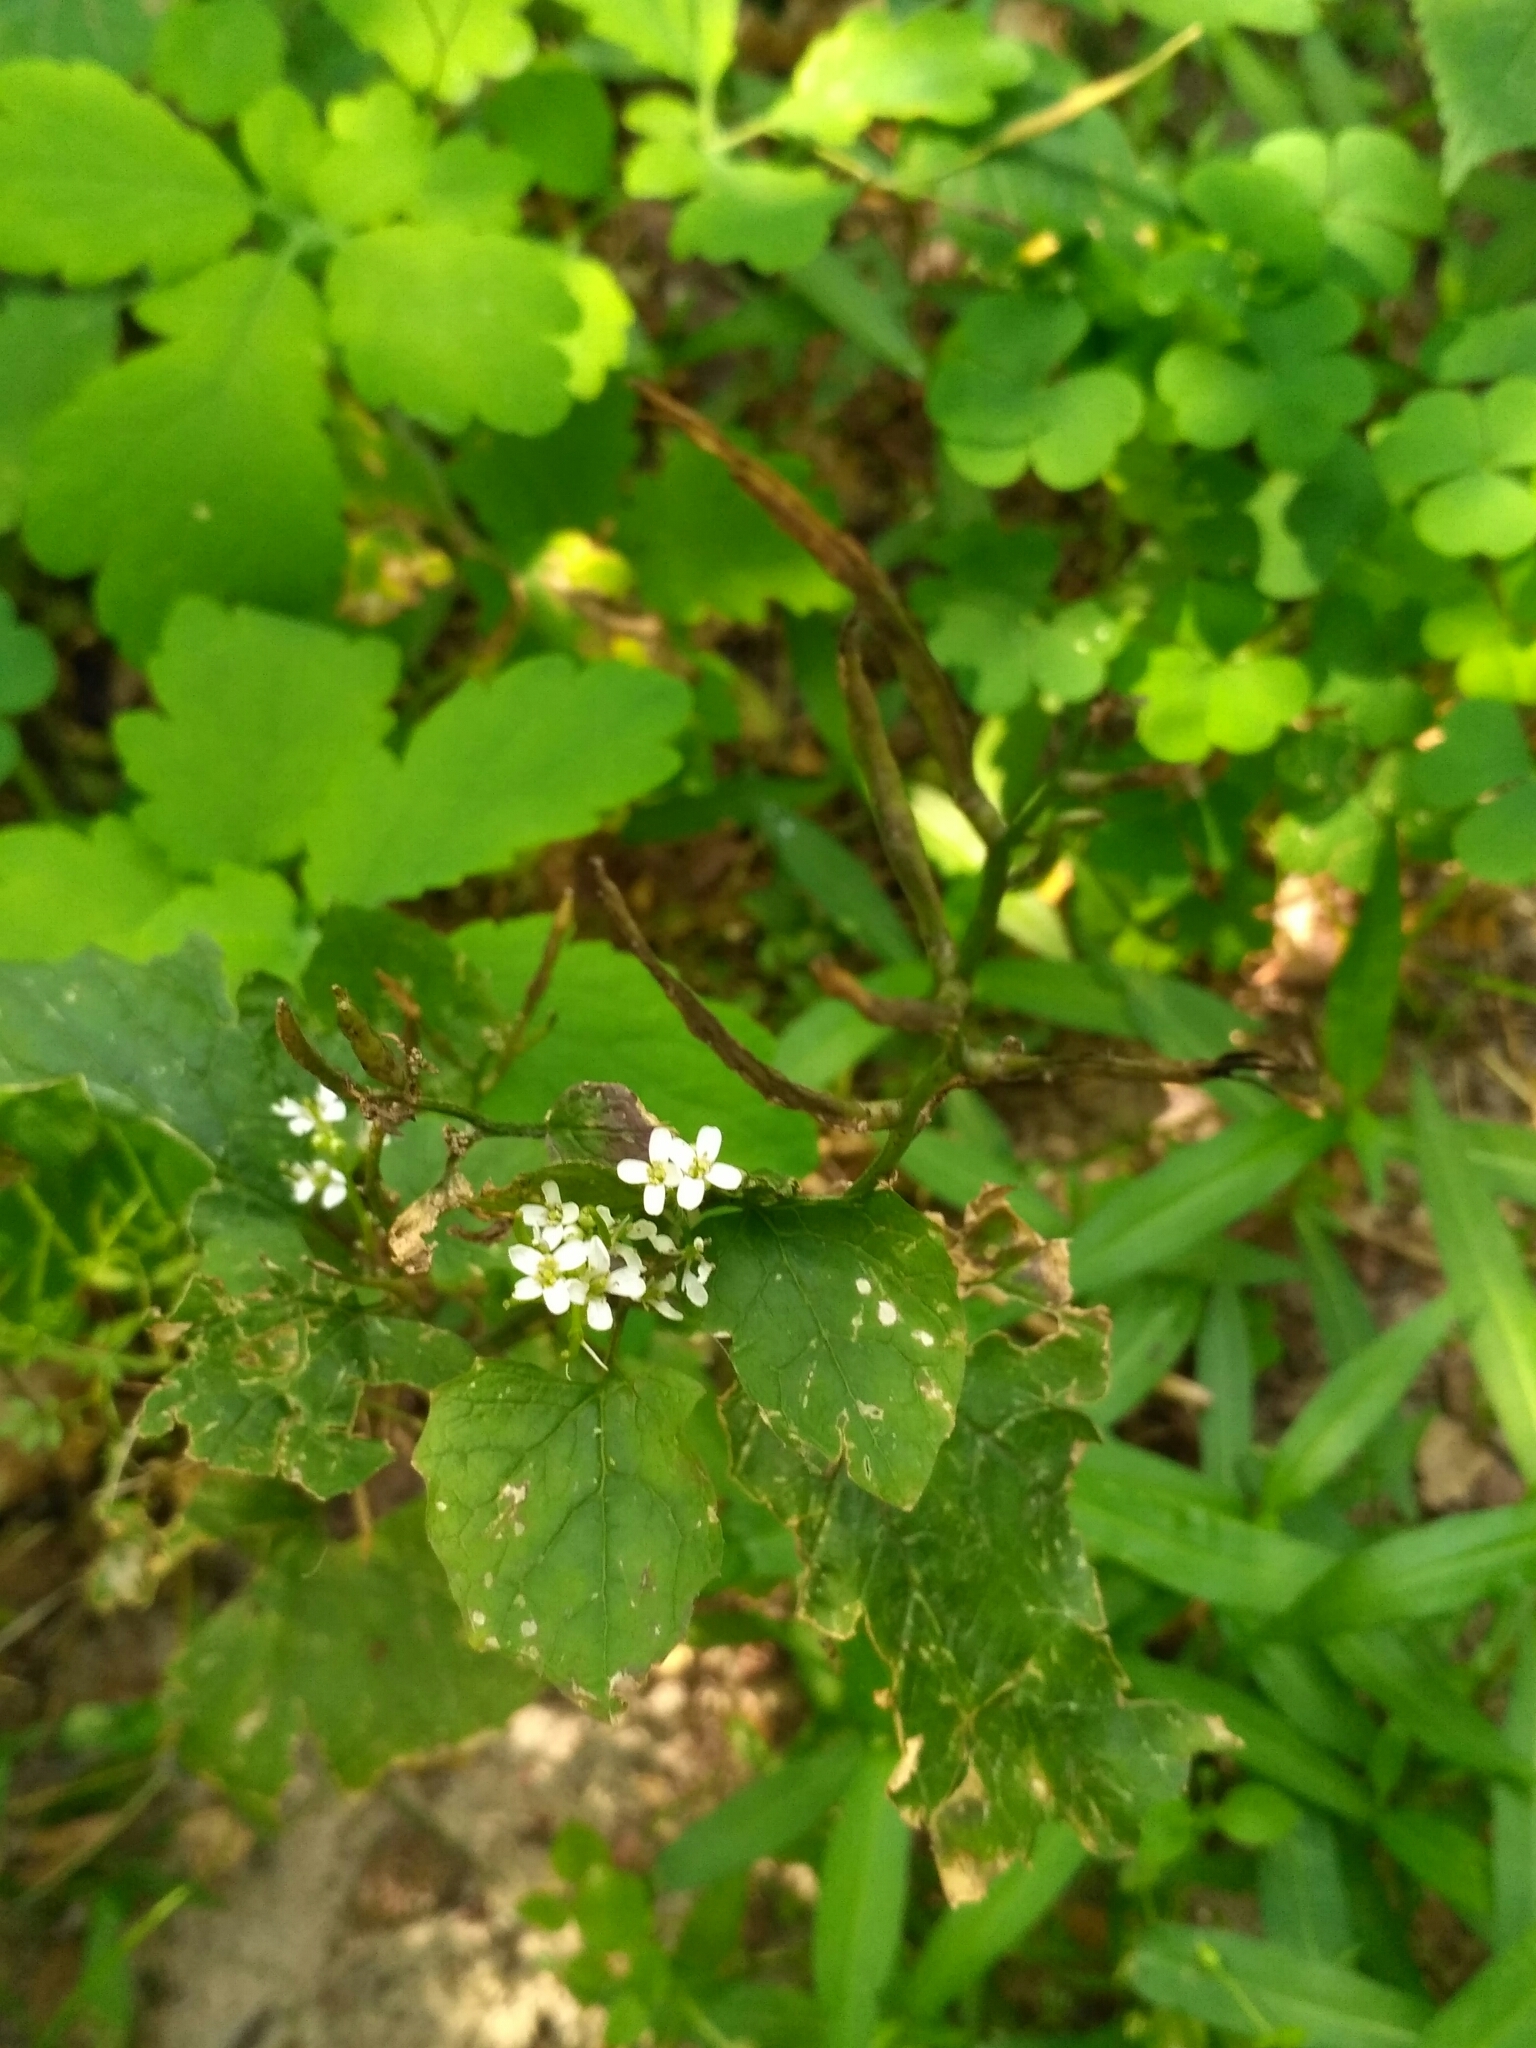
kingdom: Plantae
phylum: Tracheophyta
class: Magnoliopsida
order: Brassicales
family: Brassicaceae
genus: Alliaria
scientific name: Alliaria petiolata
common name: Garlic mustard
